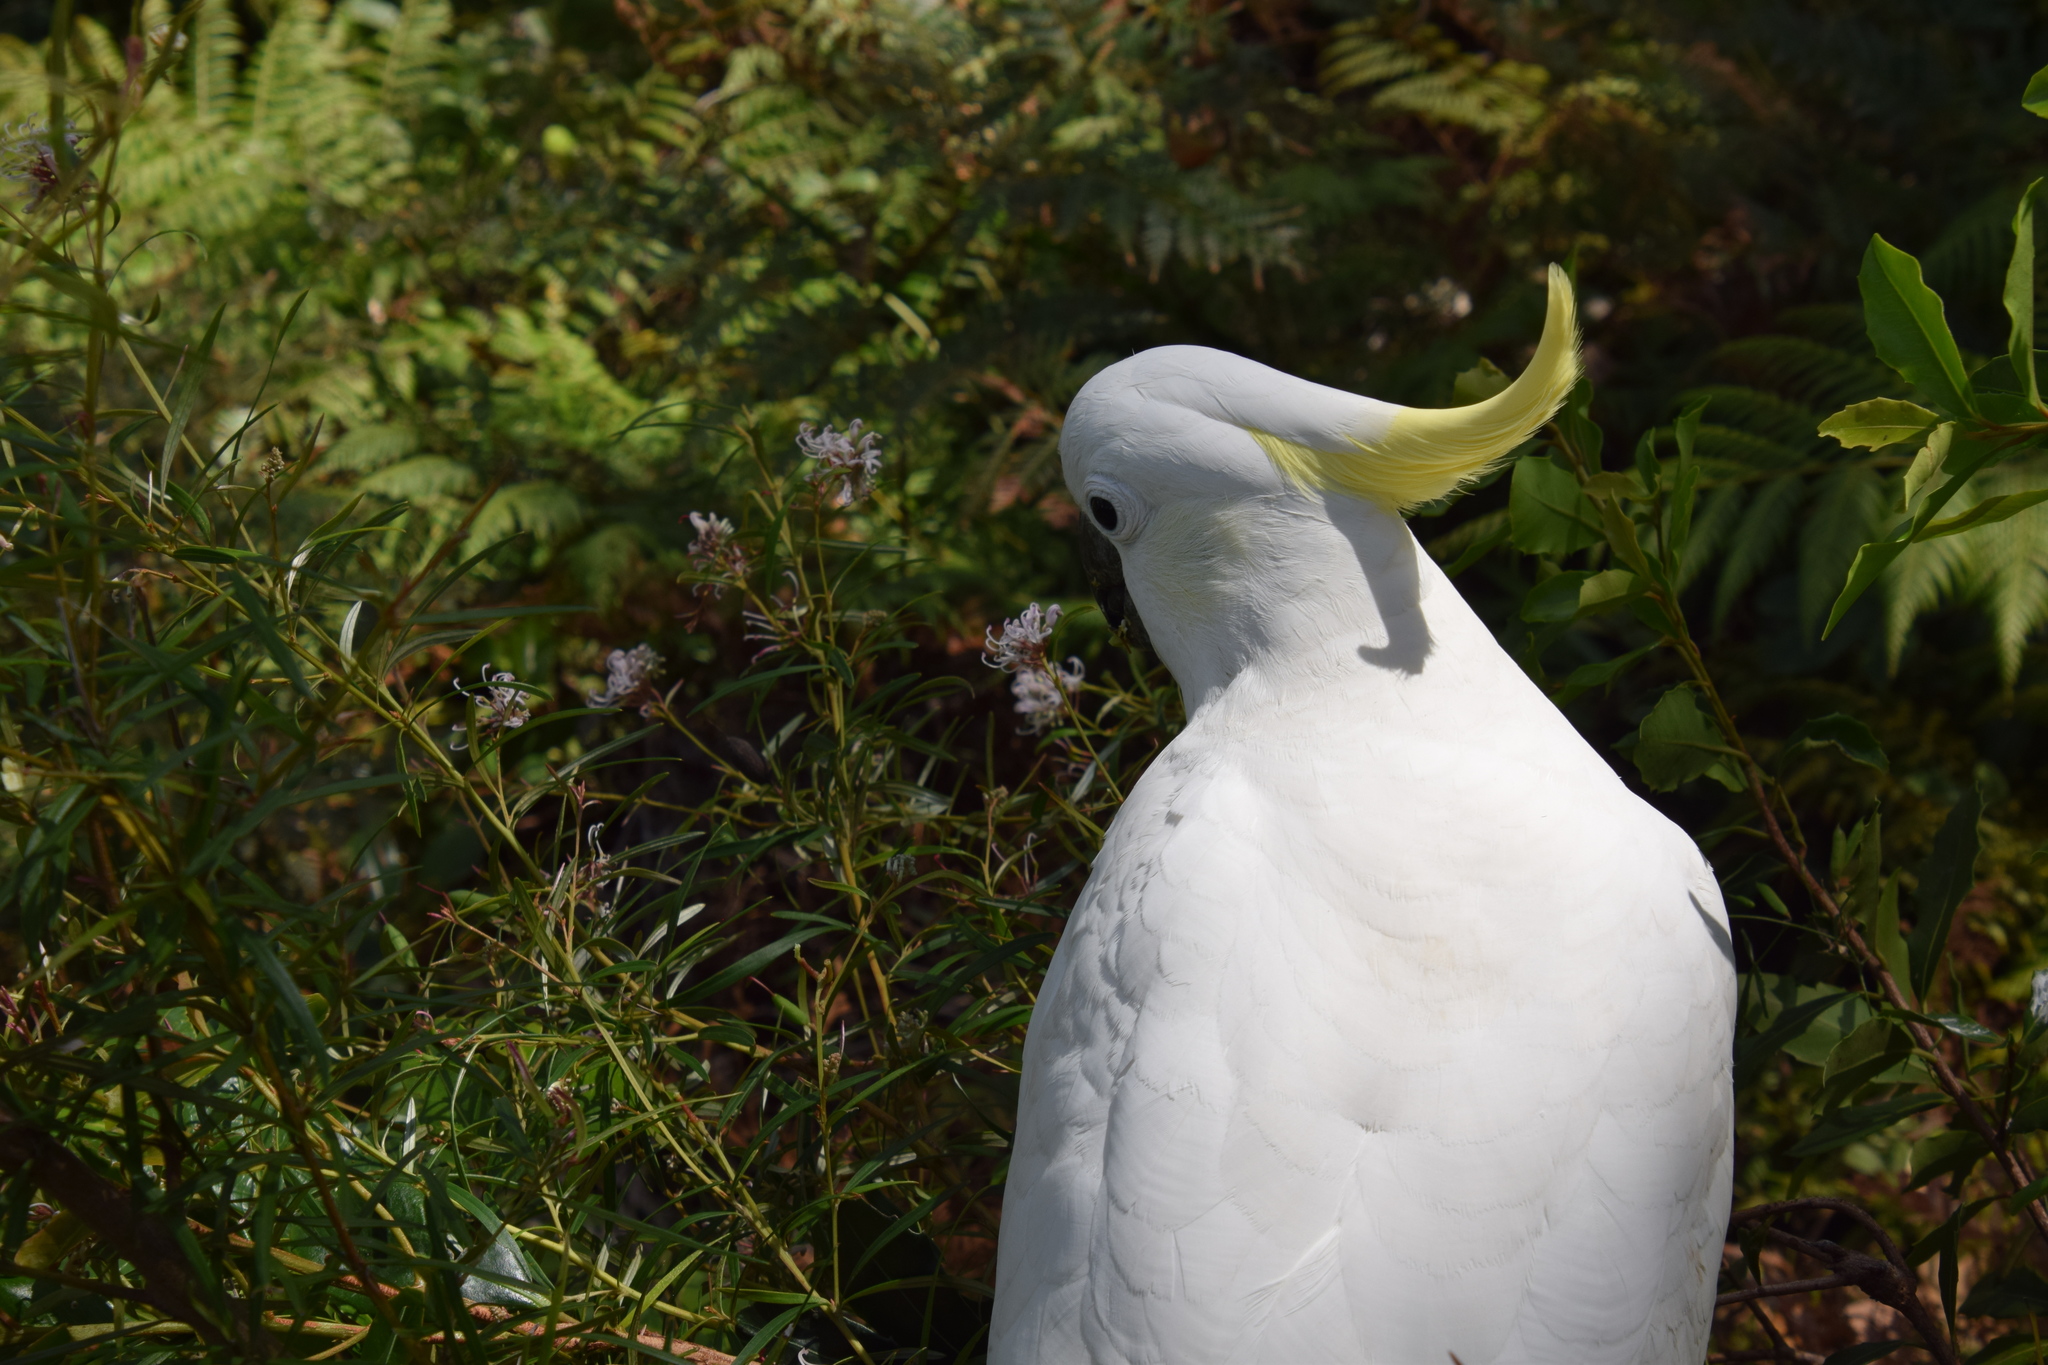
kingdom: Animalia
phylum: Chordata
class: Aves
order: Psittaciformes
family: Psittacidae
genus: Cacatua
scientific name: Cacatua galerita
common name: Sulphur-crested cockatoo
